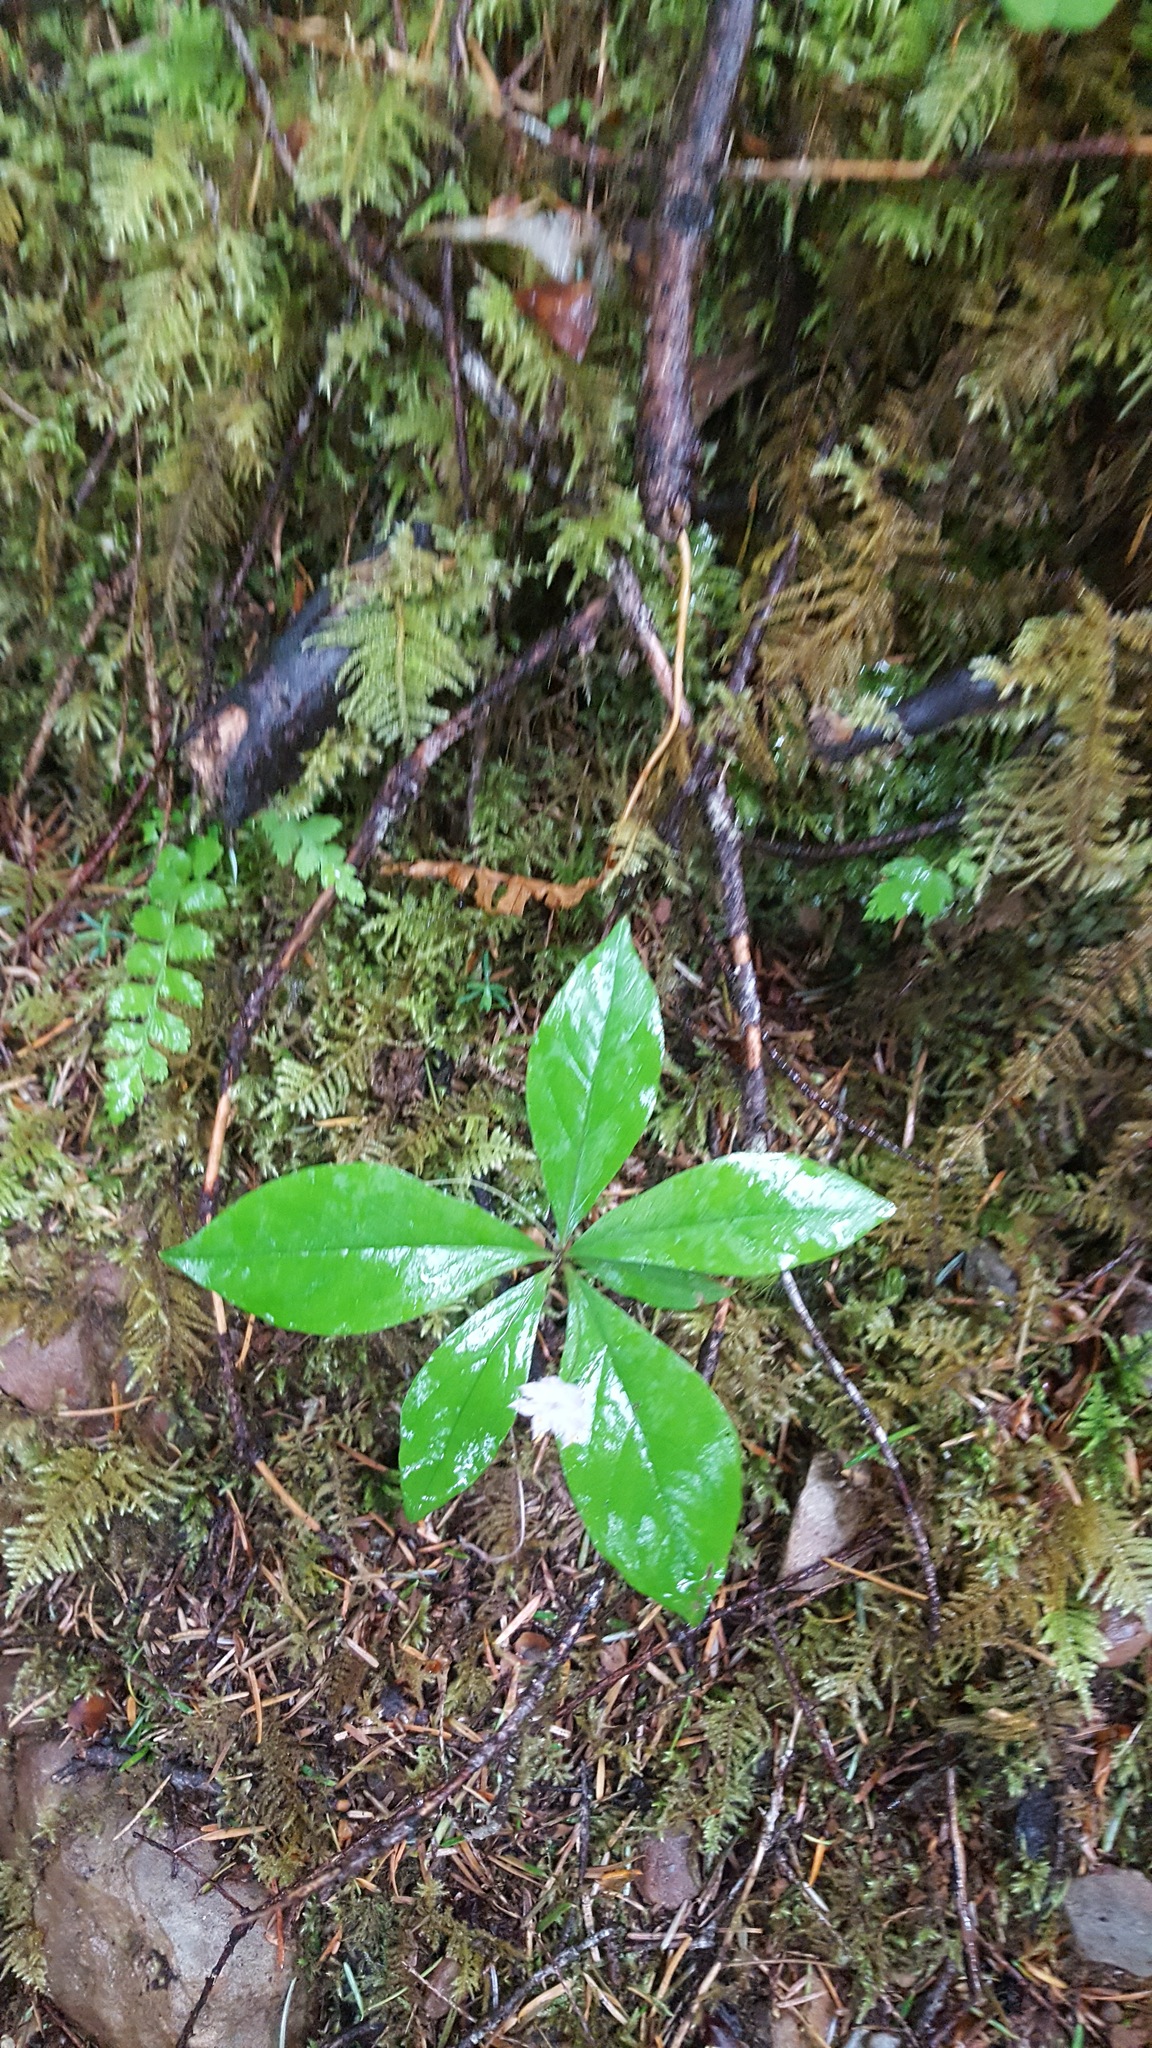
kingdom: Plantae
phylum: Tracheophyta
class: Magnoliopsida
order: Ericales
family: Primulaceae
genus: Lysimachia
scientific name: Lysimachia latifolia
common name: Pacific starflower
